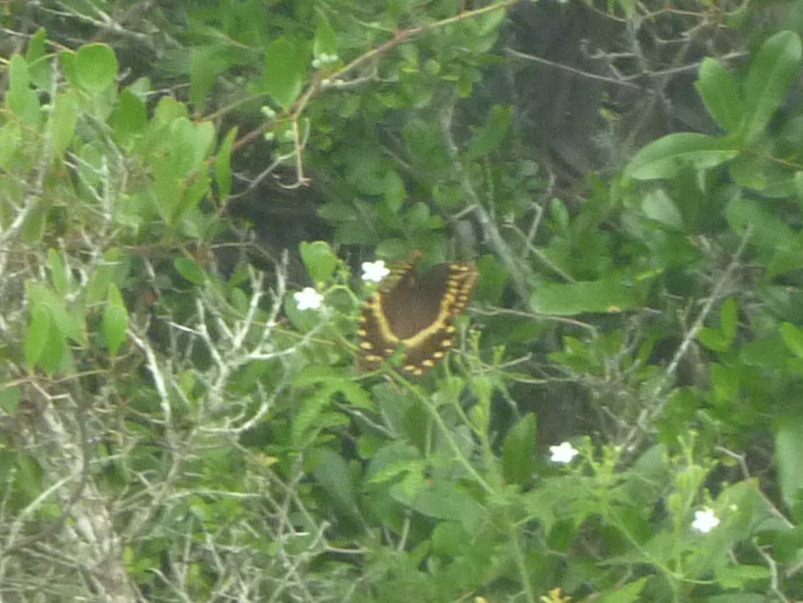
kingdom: Animalia
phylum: Arthropoda
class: Insecta
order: Lepidoptera
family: Papilionidae
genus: Papilio
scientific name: Papilio palamedes
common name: Palamedes swallowtail
